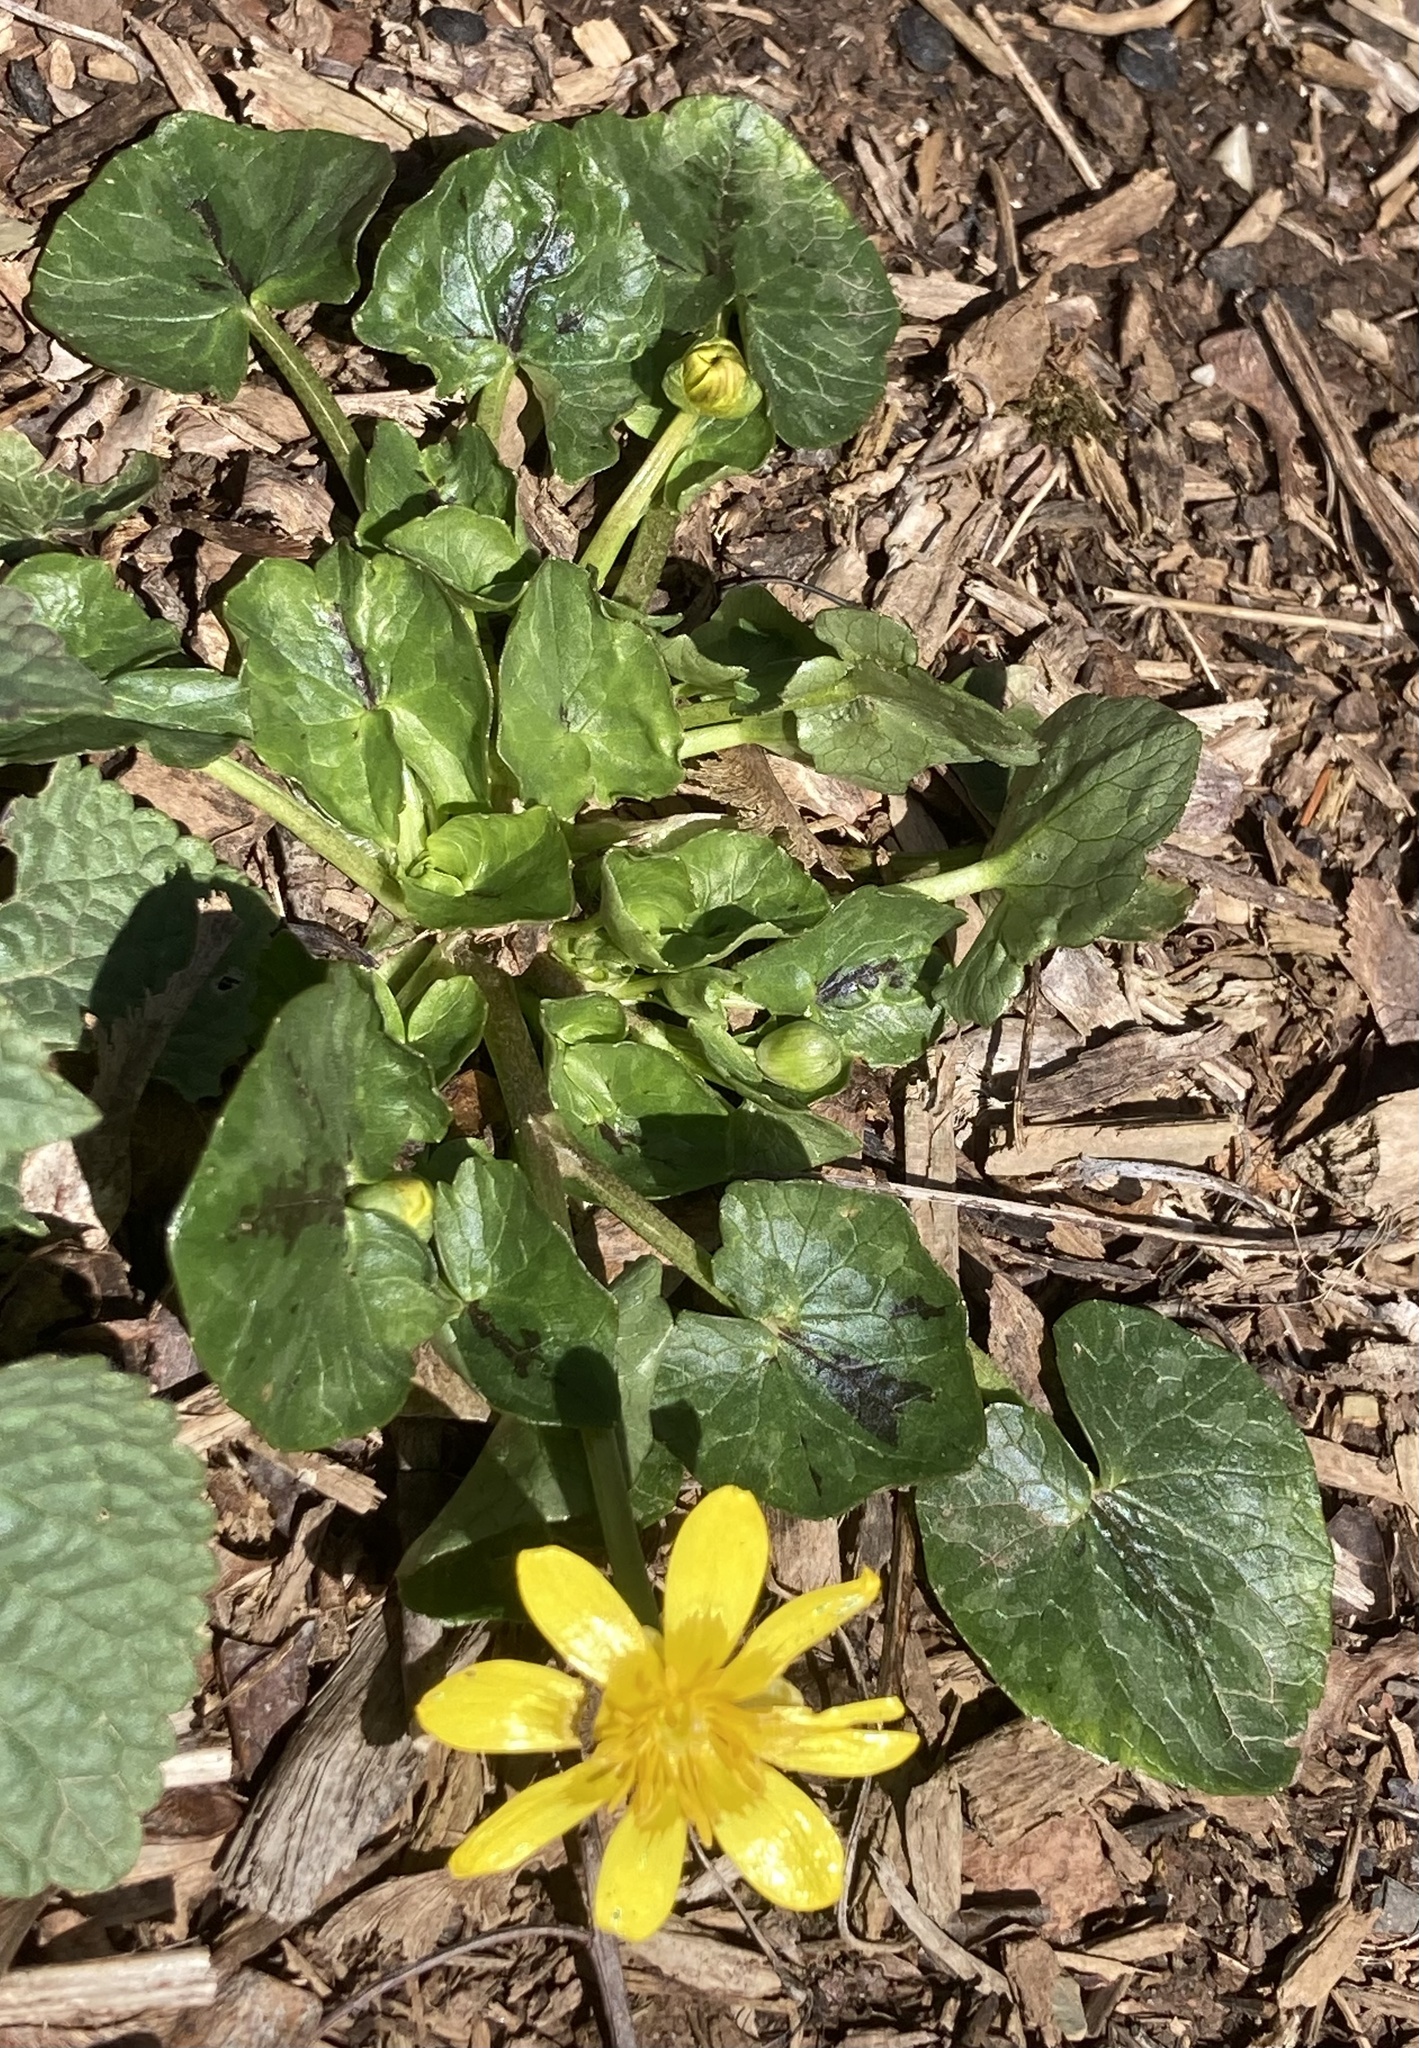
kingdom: Plantae
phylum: Tracheophyta
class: Magnoliopsida
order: Ranunculales
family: Ranunculaceae
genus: Ficaria
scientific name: Ficaria verna
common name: Lesser celandine
